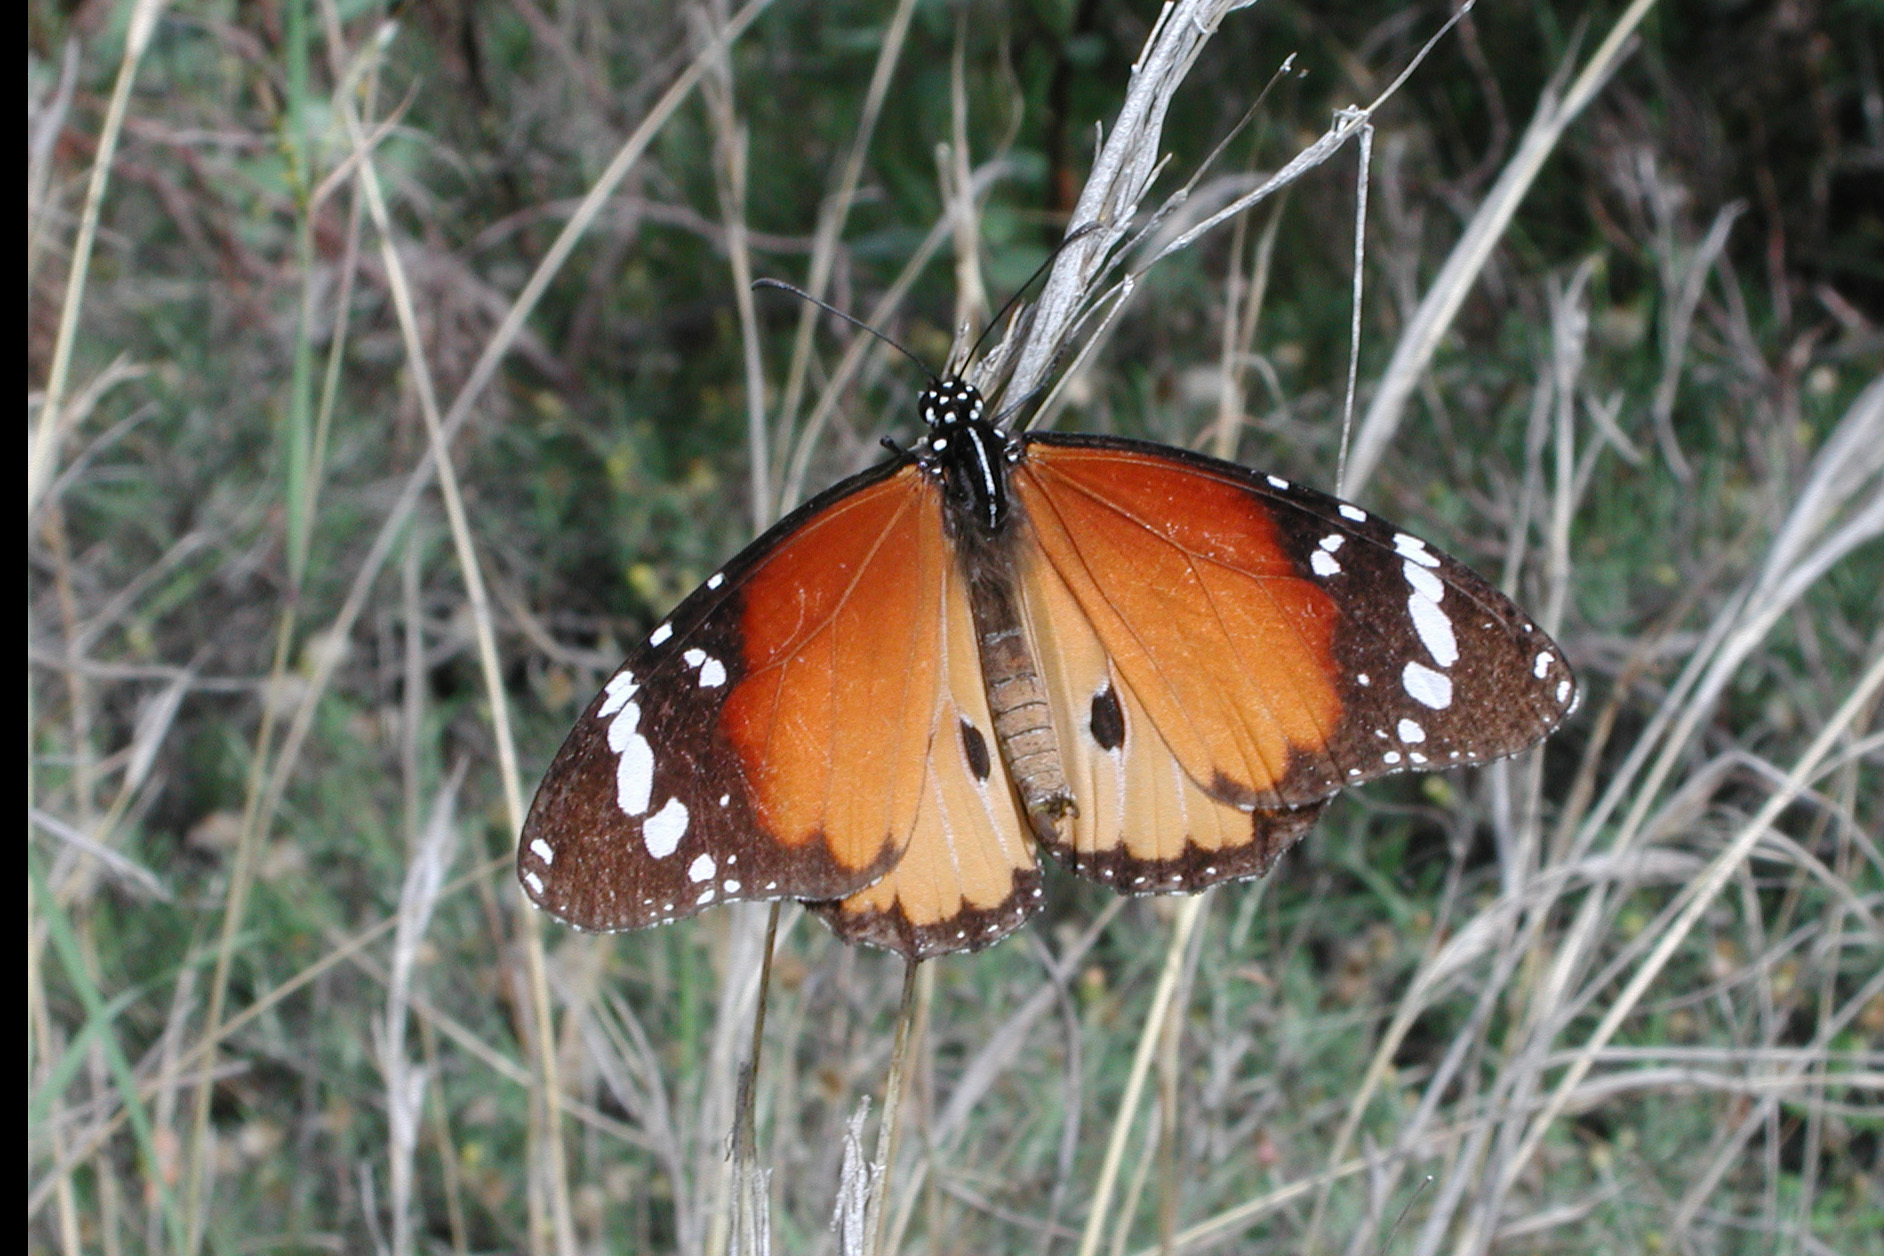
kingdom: Animalia
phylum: Arthropoda
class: Insecta
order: Lepidoptera
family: Nymphalidae
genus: Danaus
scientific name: Danaus chrysippus
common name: Plain tiger
